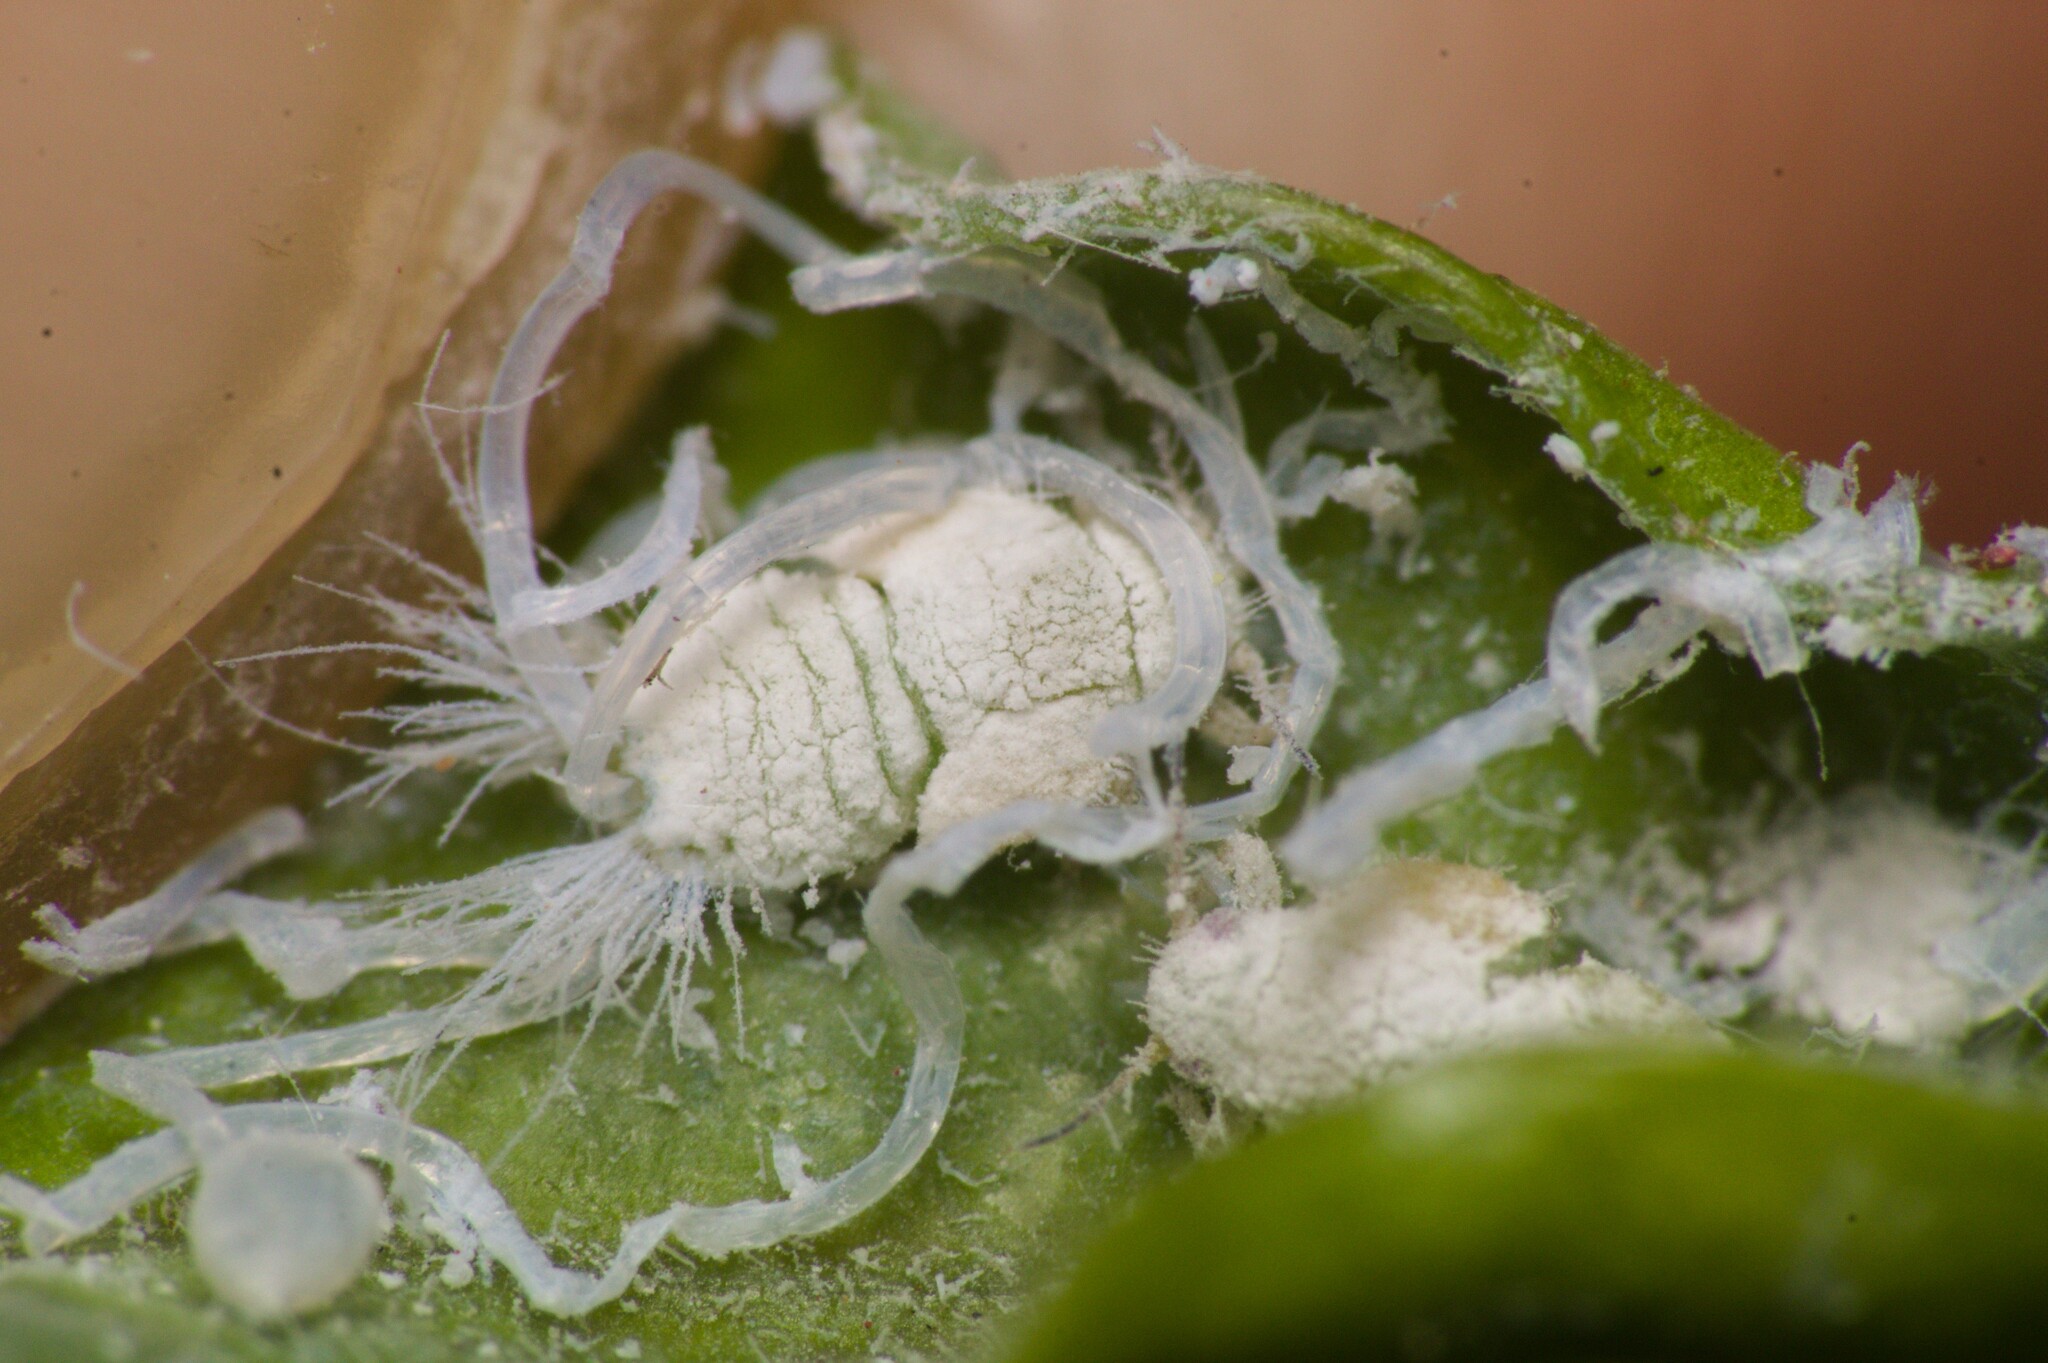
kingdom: Animalia
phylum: Arthropoda
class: Insecta
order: Hemiptera
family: Liviidae
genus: Tuthillia
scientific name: Tuthillia myrcianthis
